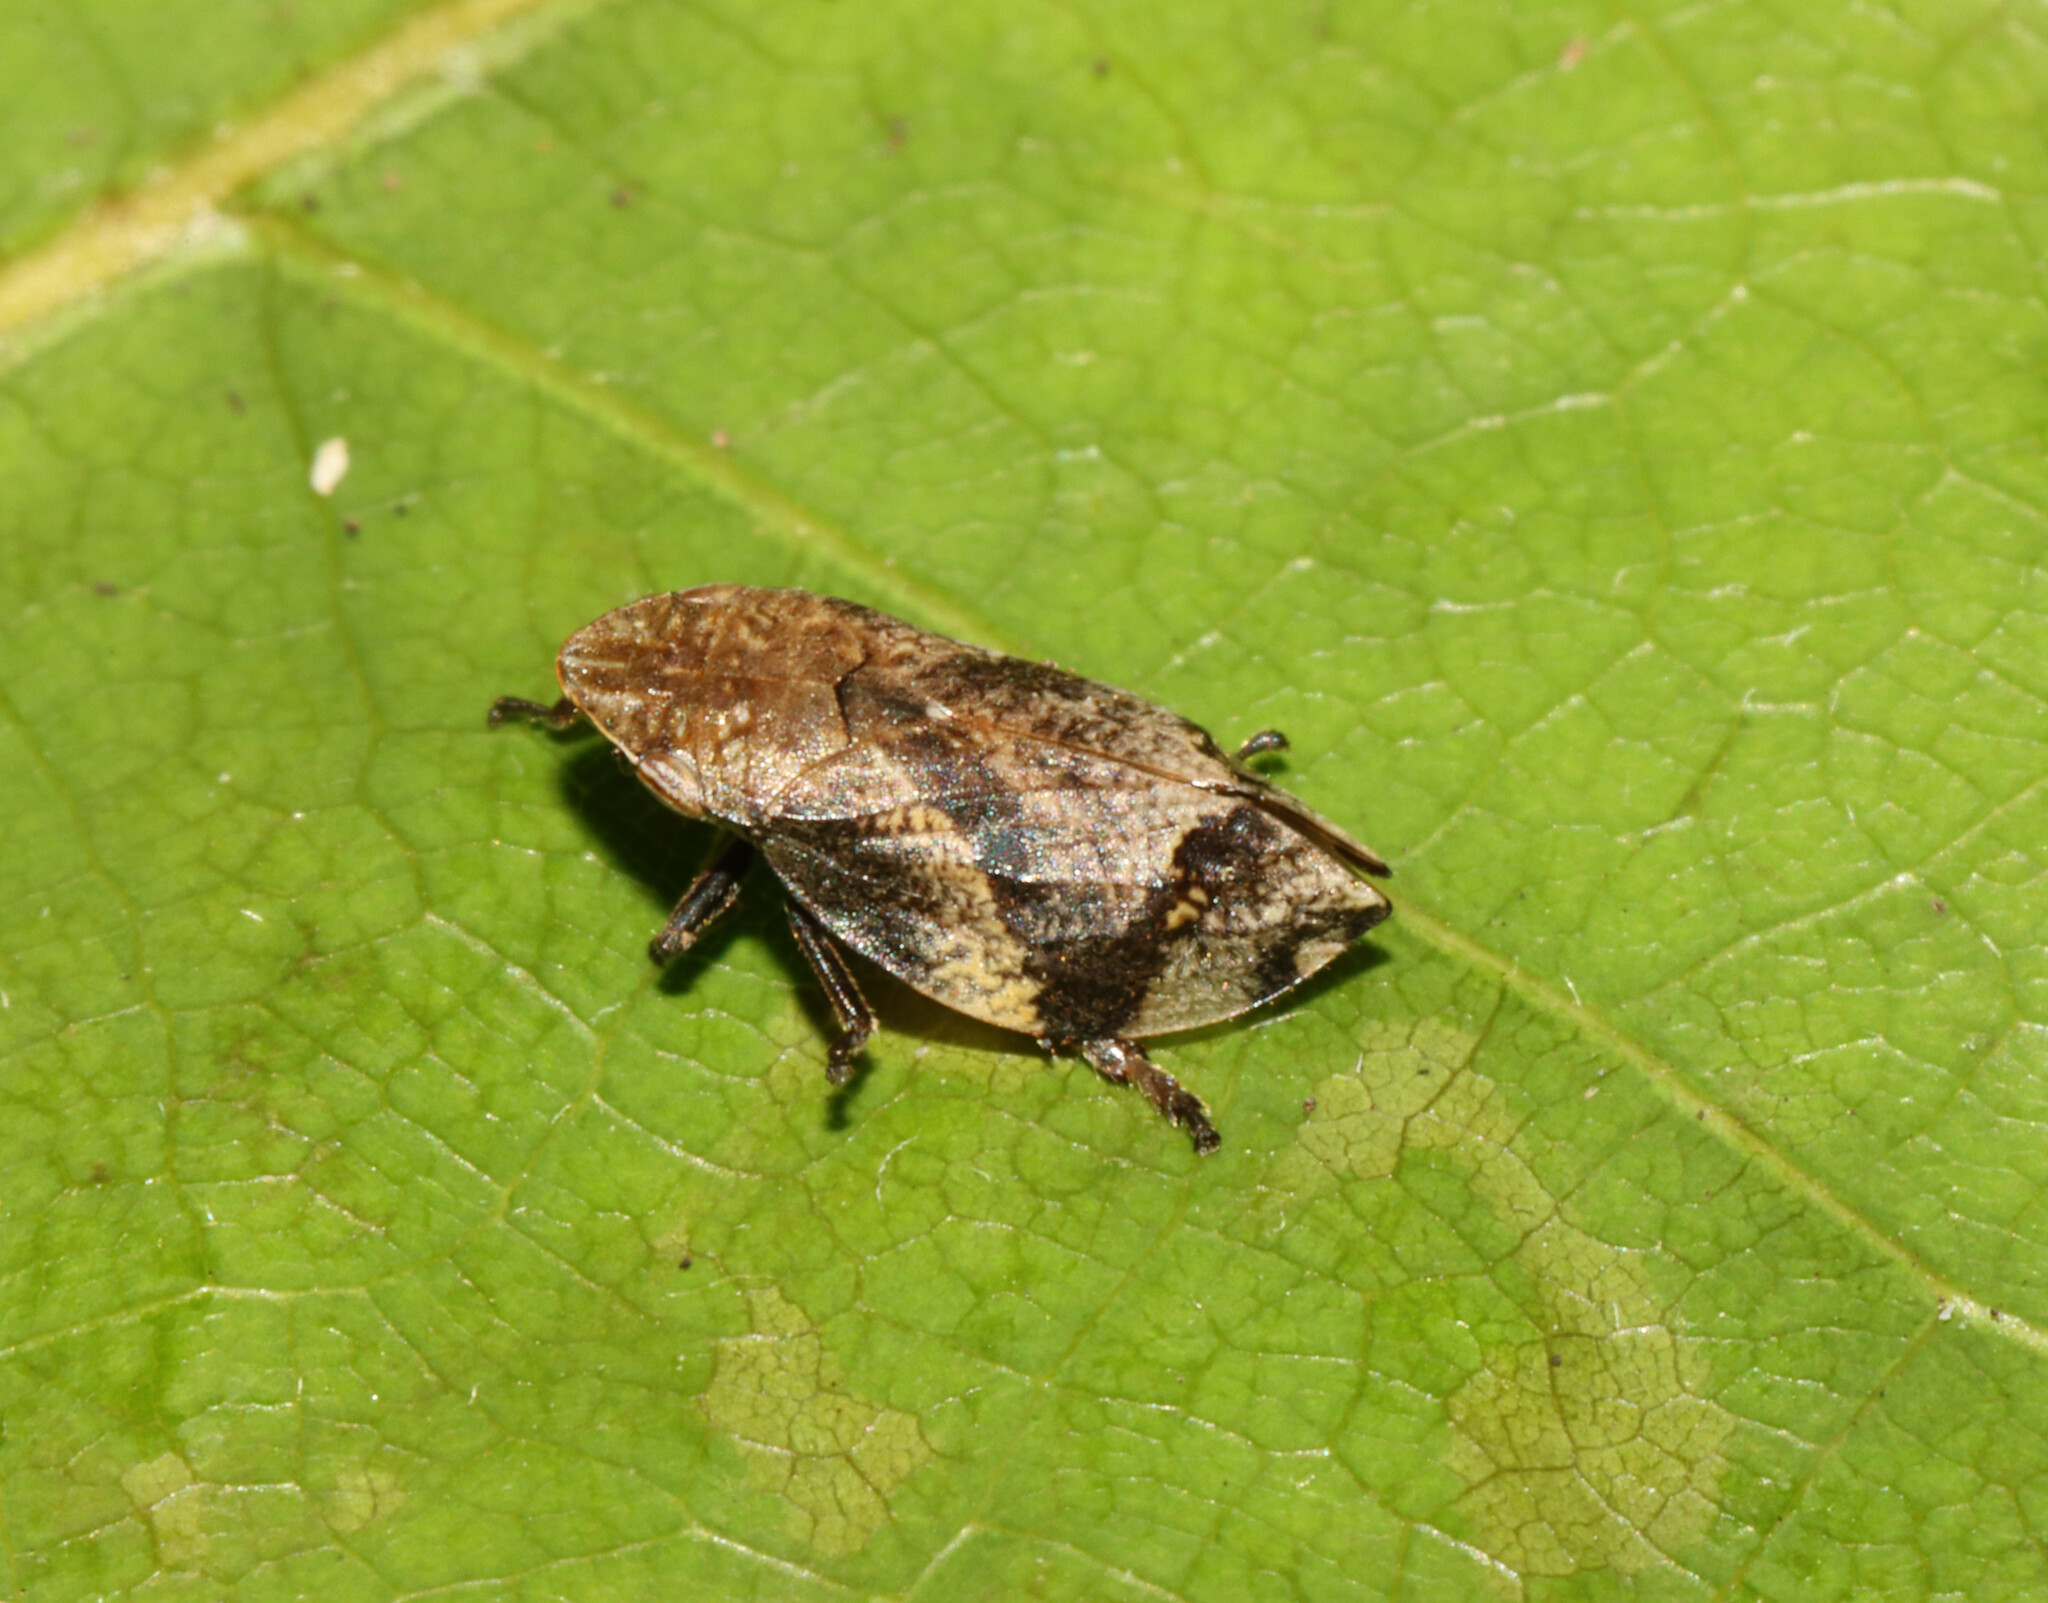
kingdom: Animalia
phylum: Arthropoda
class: Insecta
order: Hemiptera
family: Aphrophoridae
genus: Lepyronia
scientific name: Lepyronia quadrangularis
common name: Diamond-backed spittlebug
